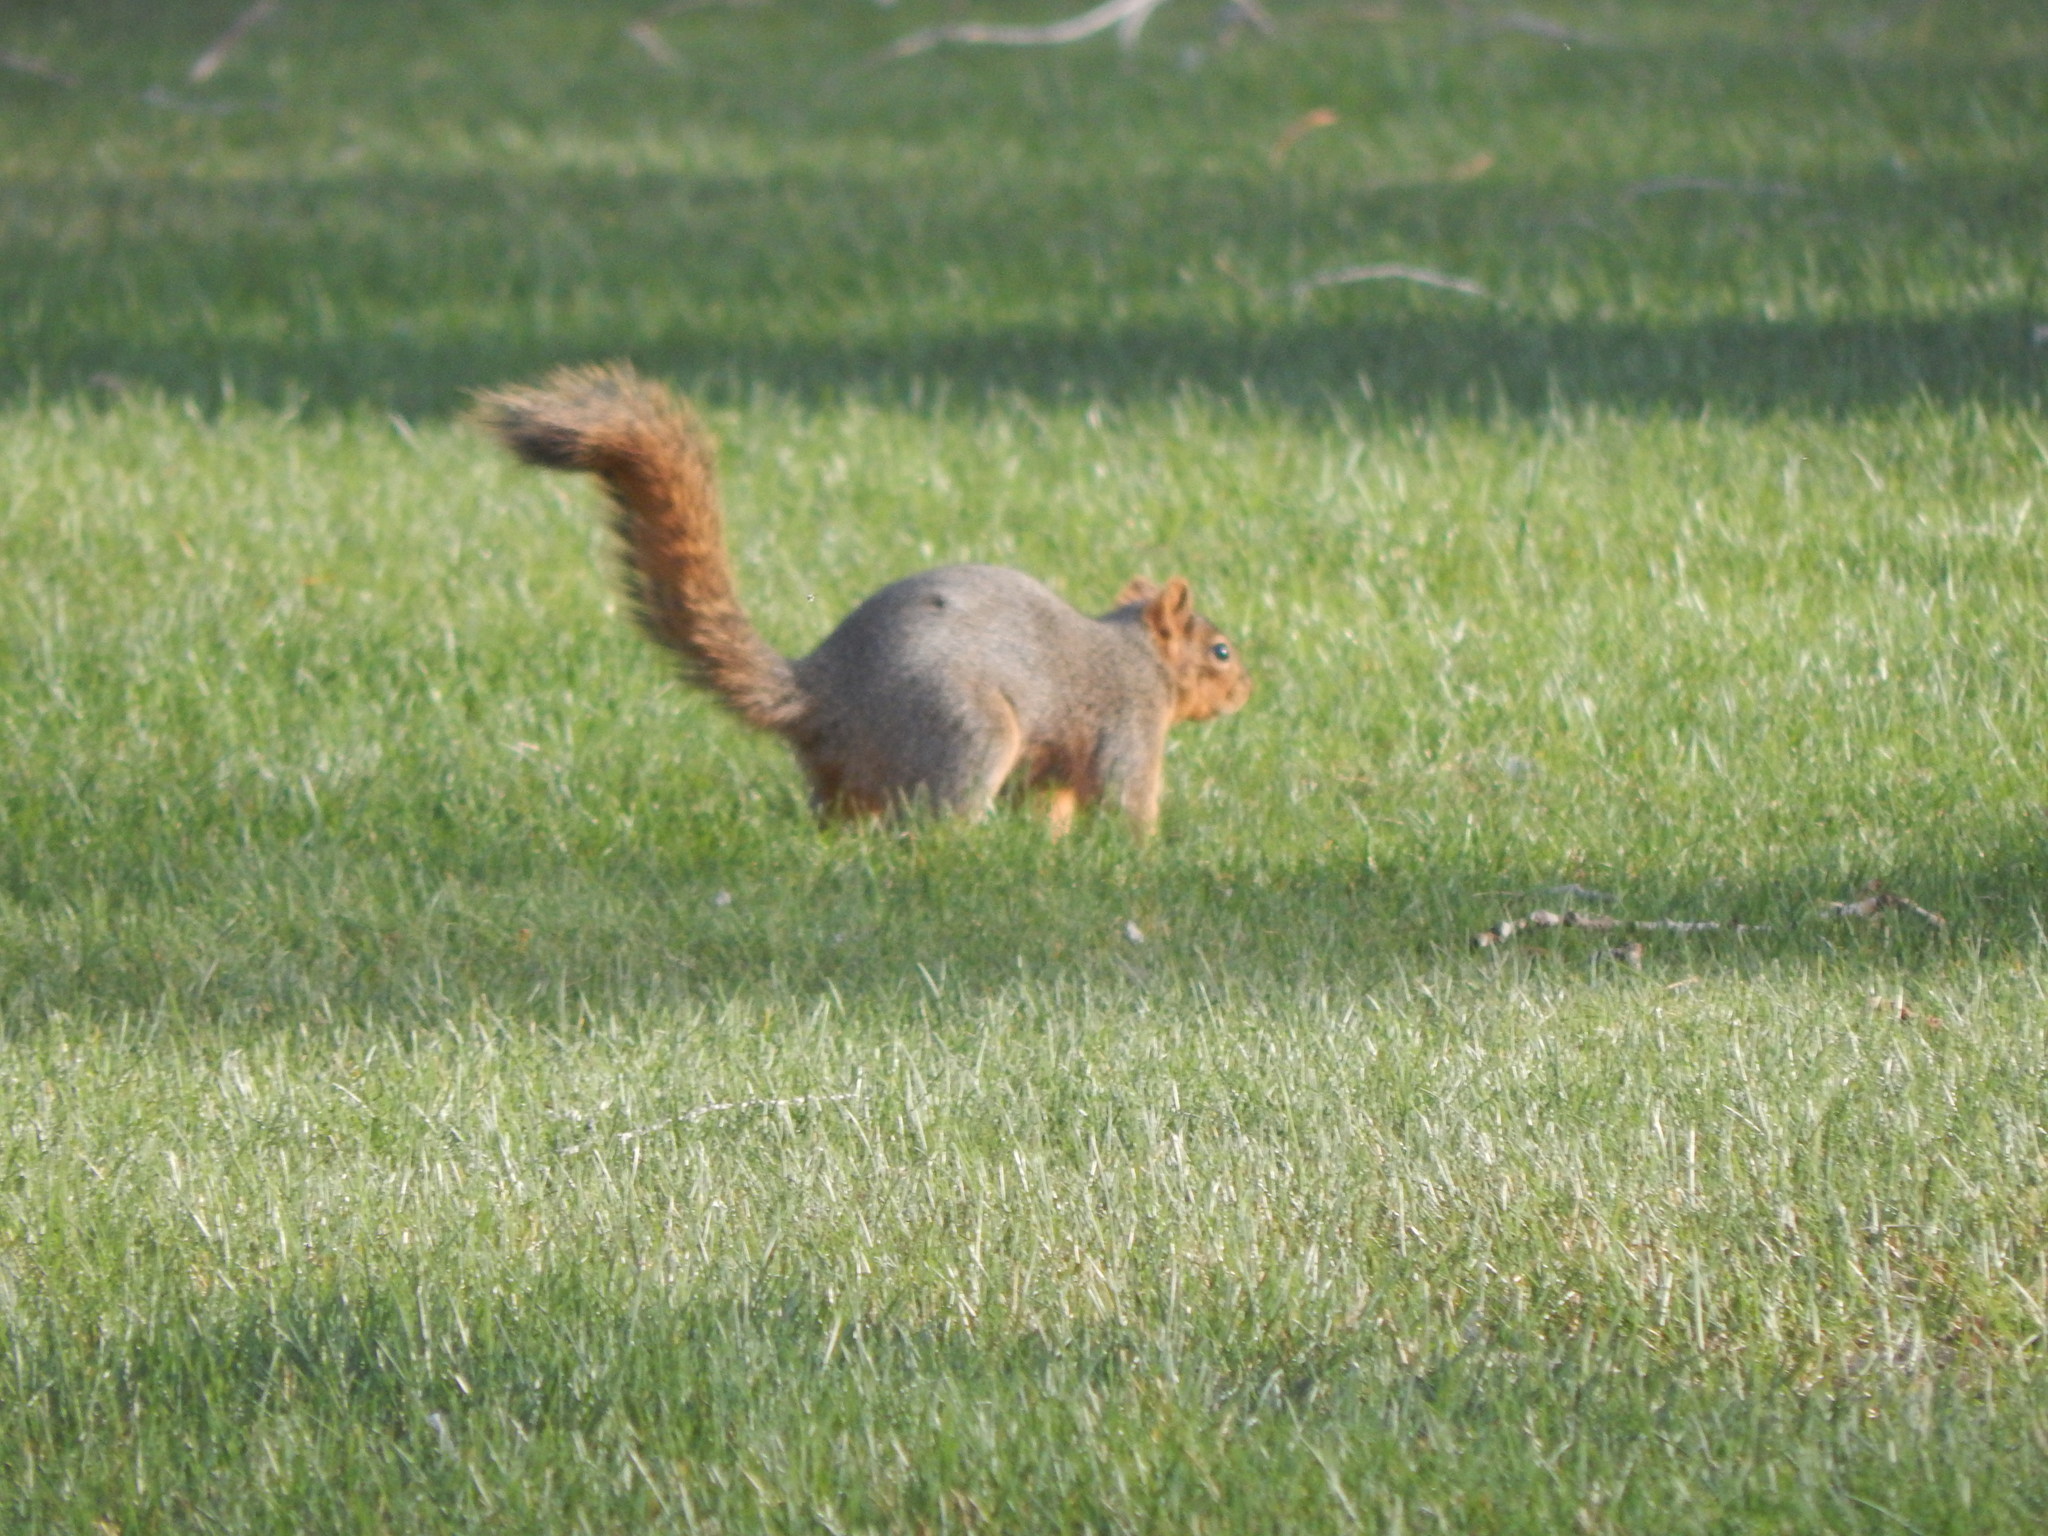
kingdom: Animalia
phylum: Chordata
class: Mammalia
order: Rodentia
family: Sciuridae
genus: Sciurus
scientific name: Sciurus niger
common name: Fox squirrel
